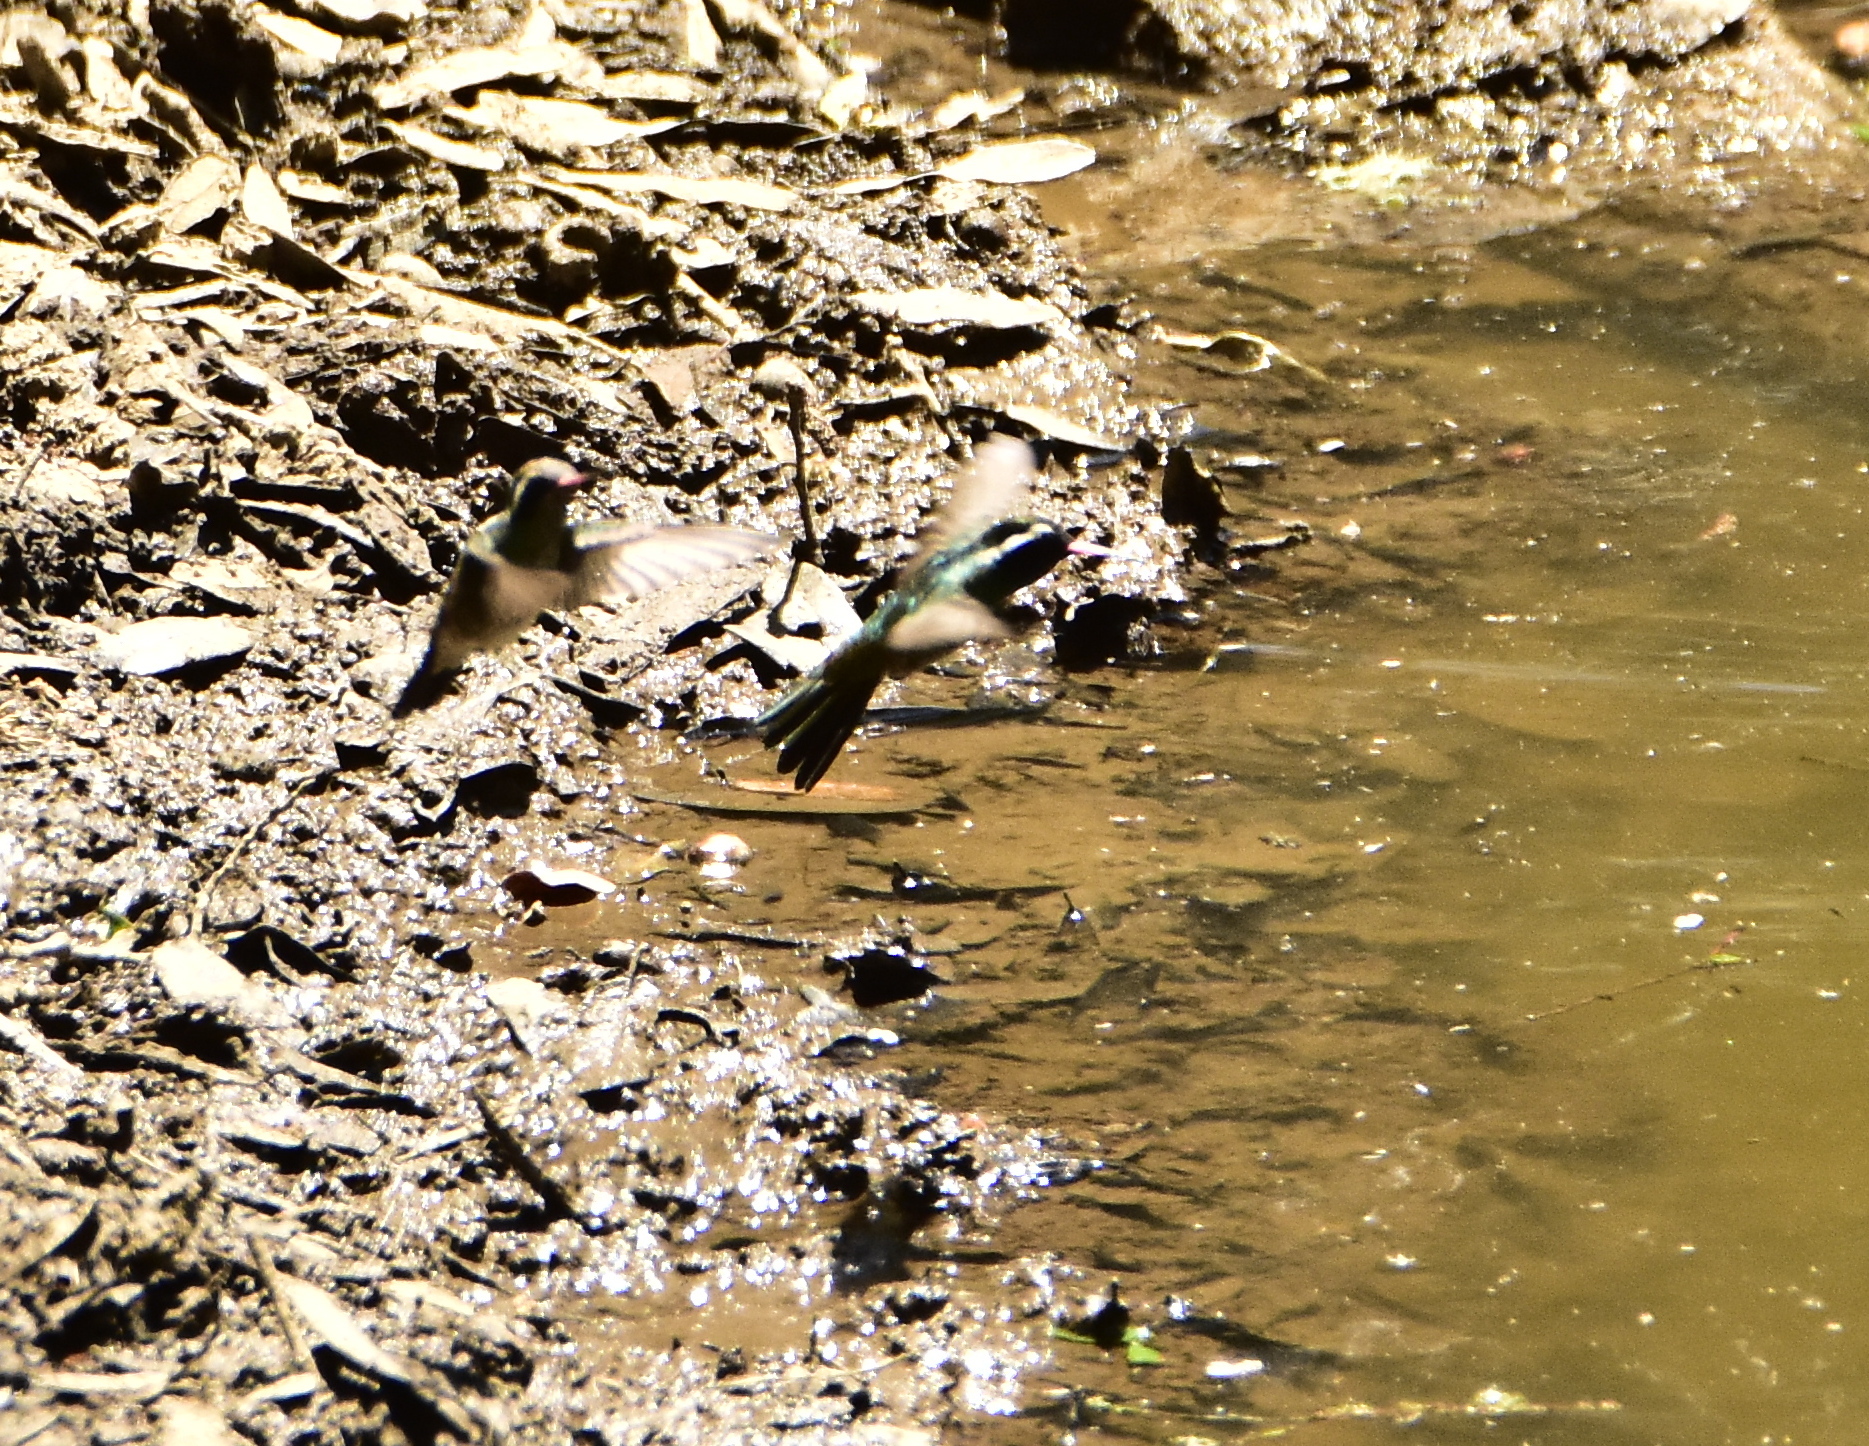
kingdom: Animalia
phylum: Chordata
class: Aves
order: Apodiformes
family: Trochilidae
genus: Basilinna
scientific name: Basilinna leucotis
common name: White-eared hummingbird
